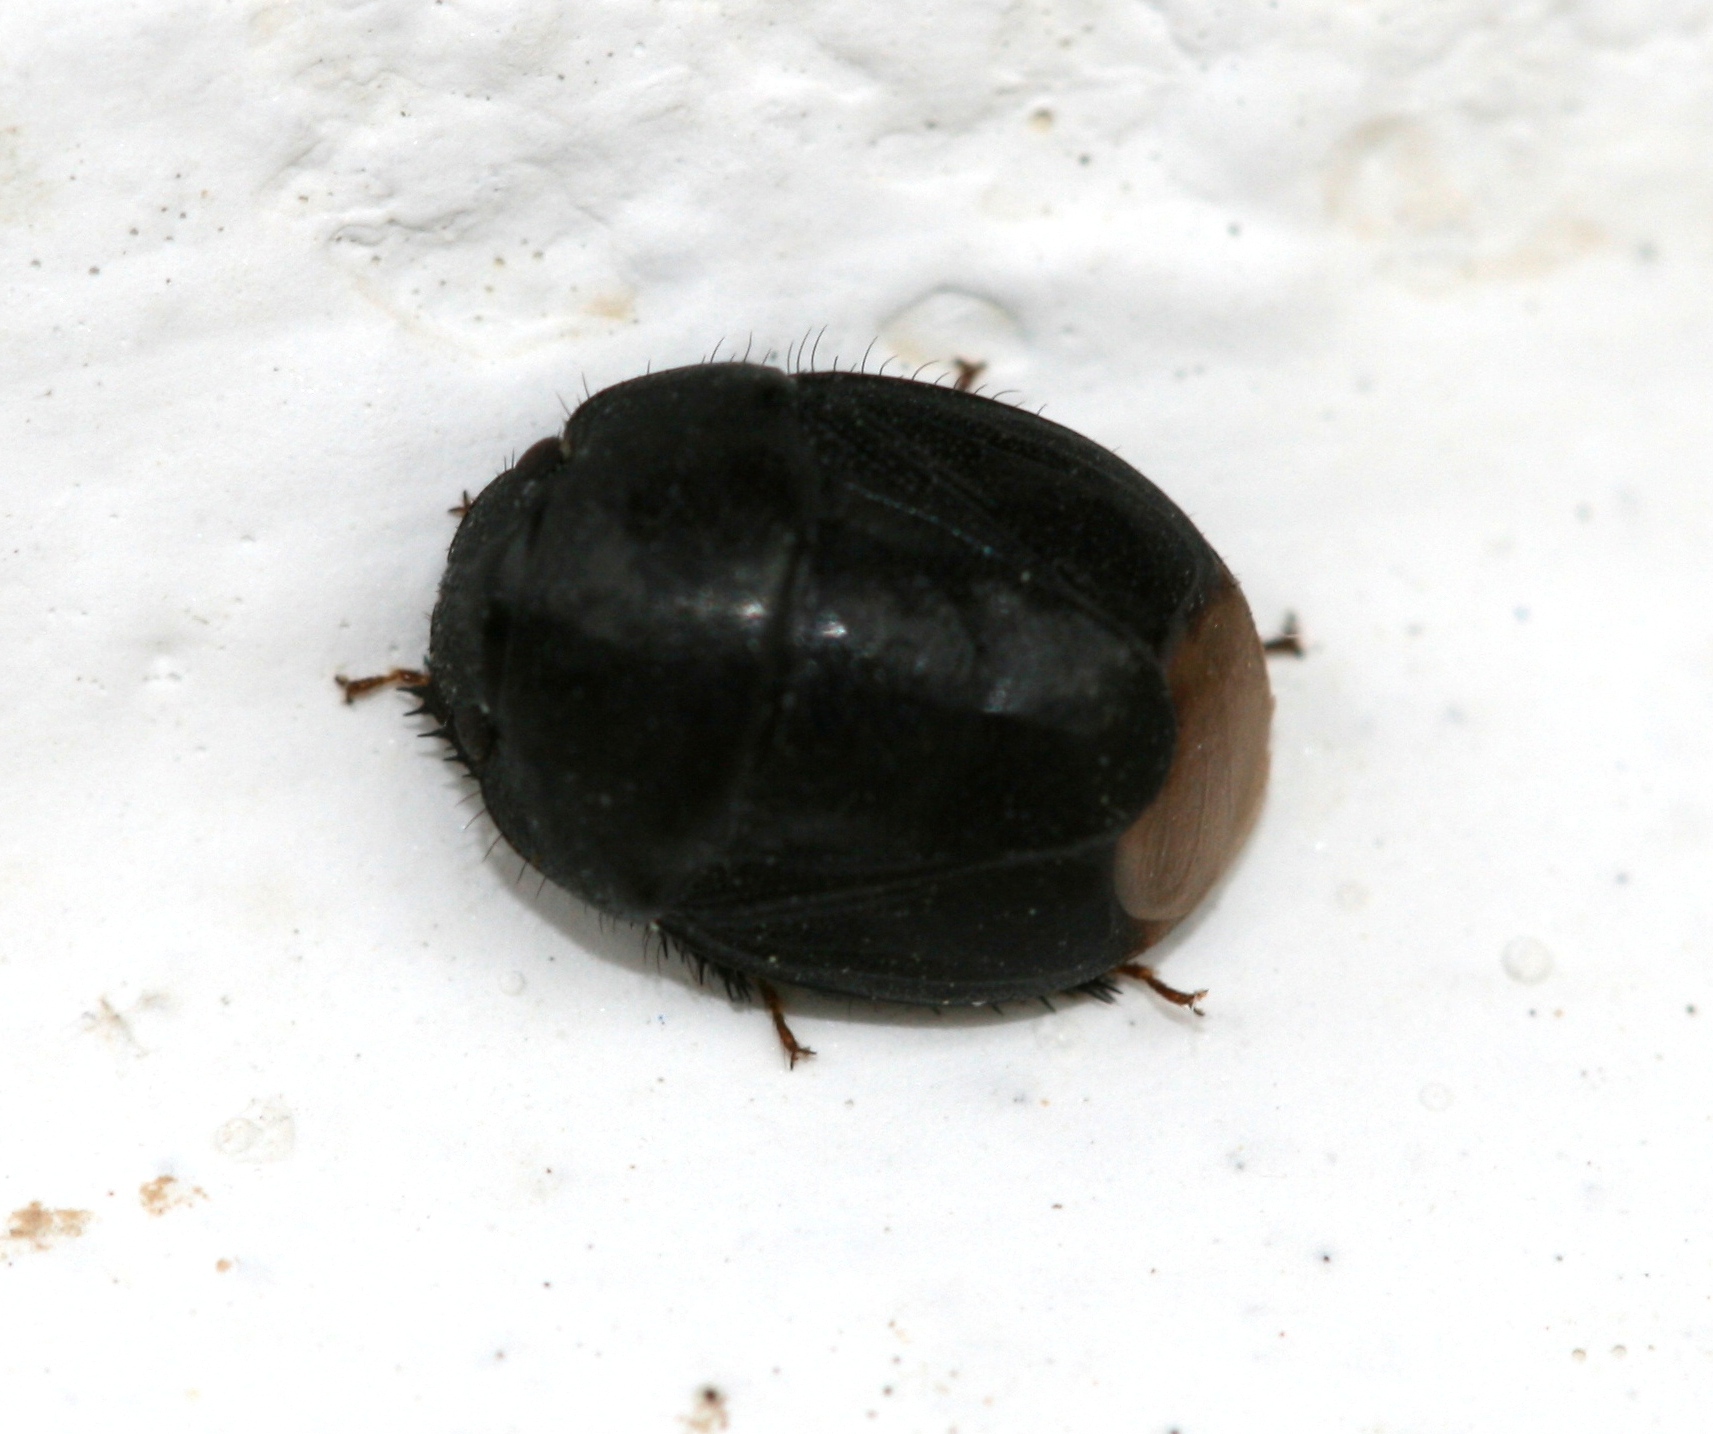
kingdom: Animalia
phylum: Arthropoda
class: Insecta
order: Hemiptera
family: Cydnidae
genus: Amaurocoris
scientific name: Amaurocoris curtus
